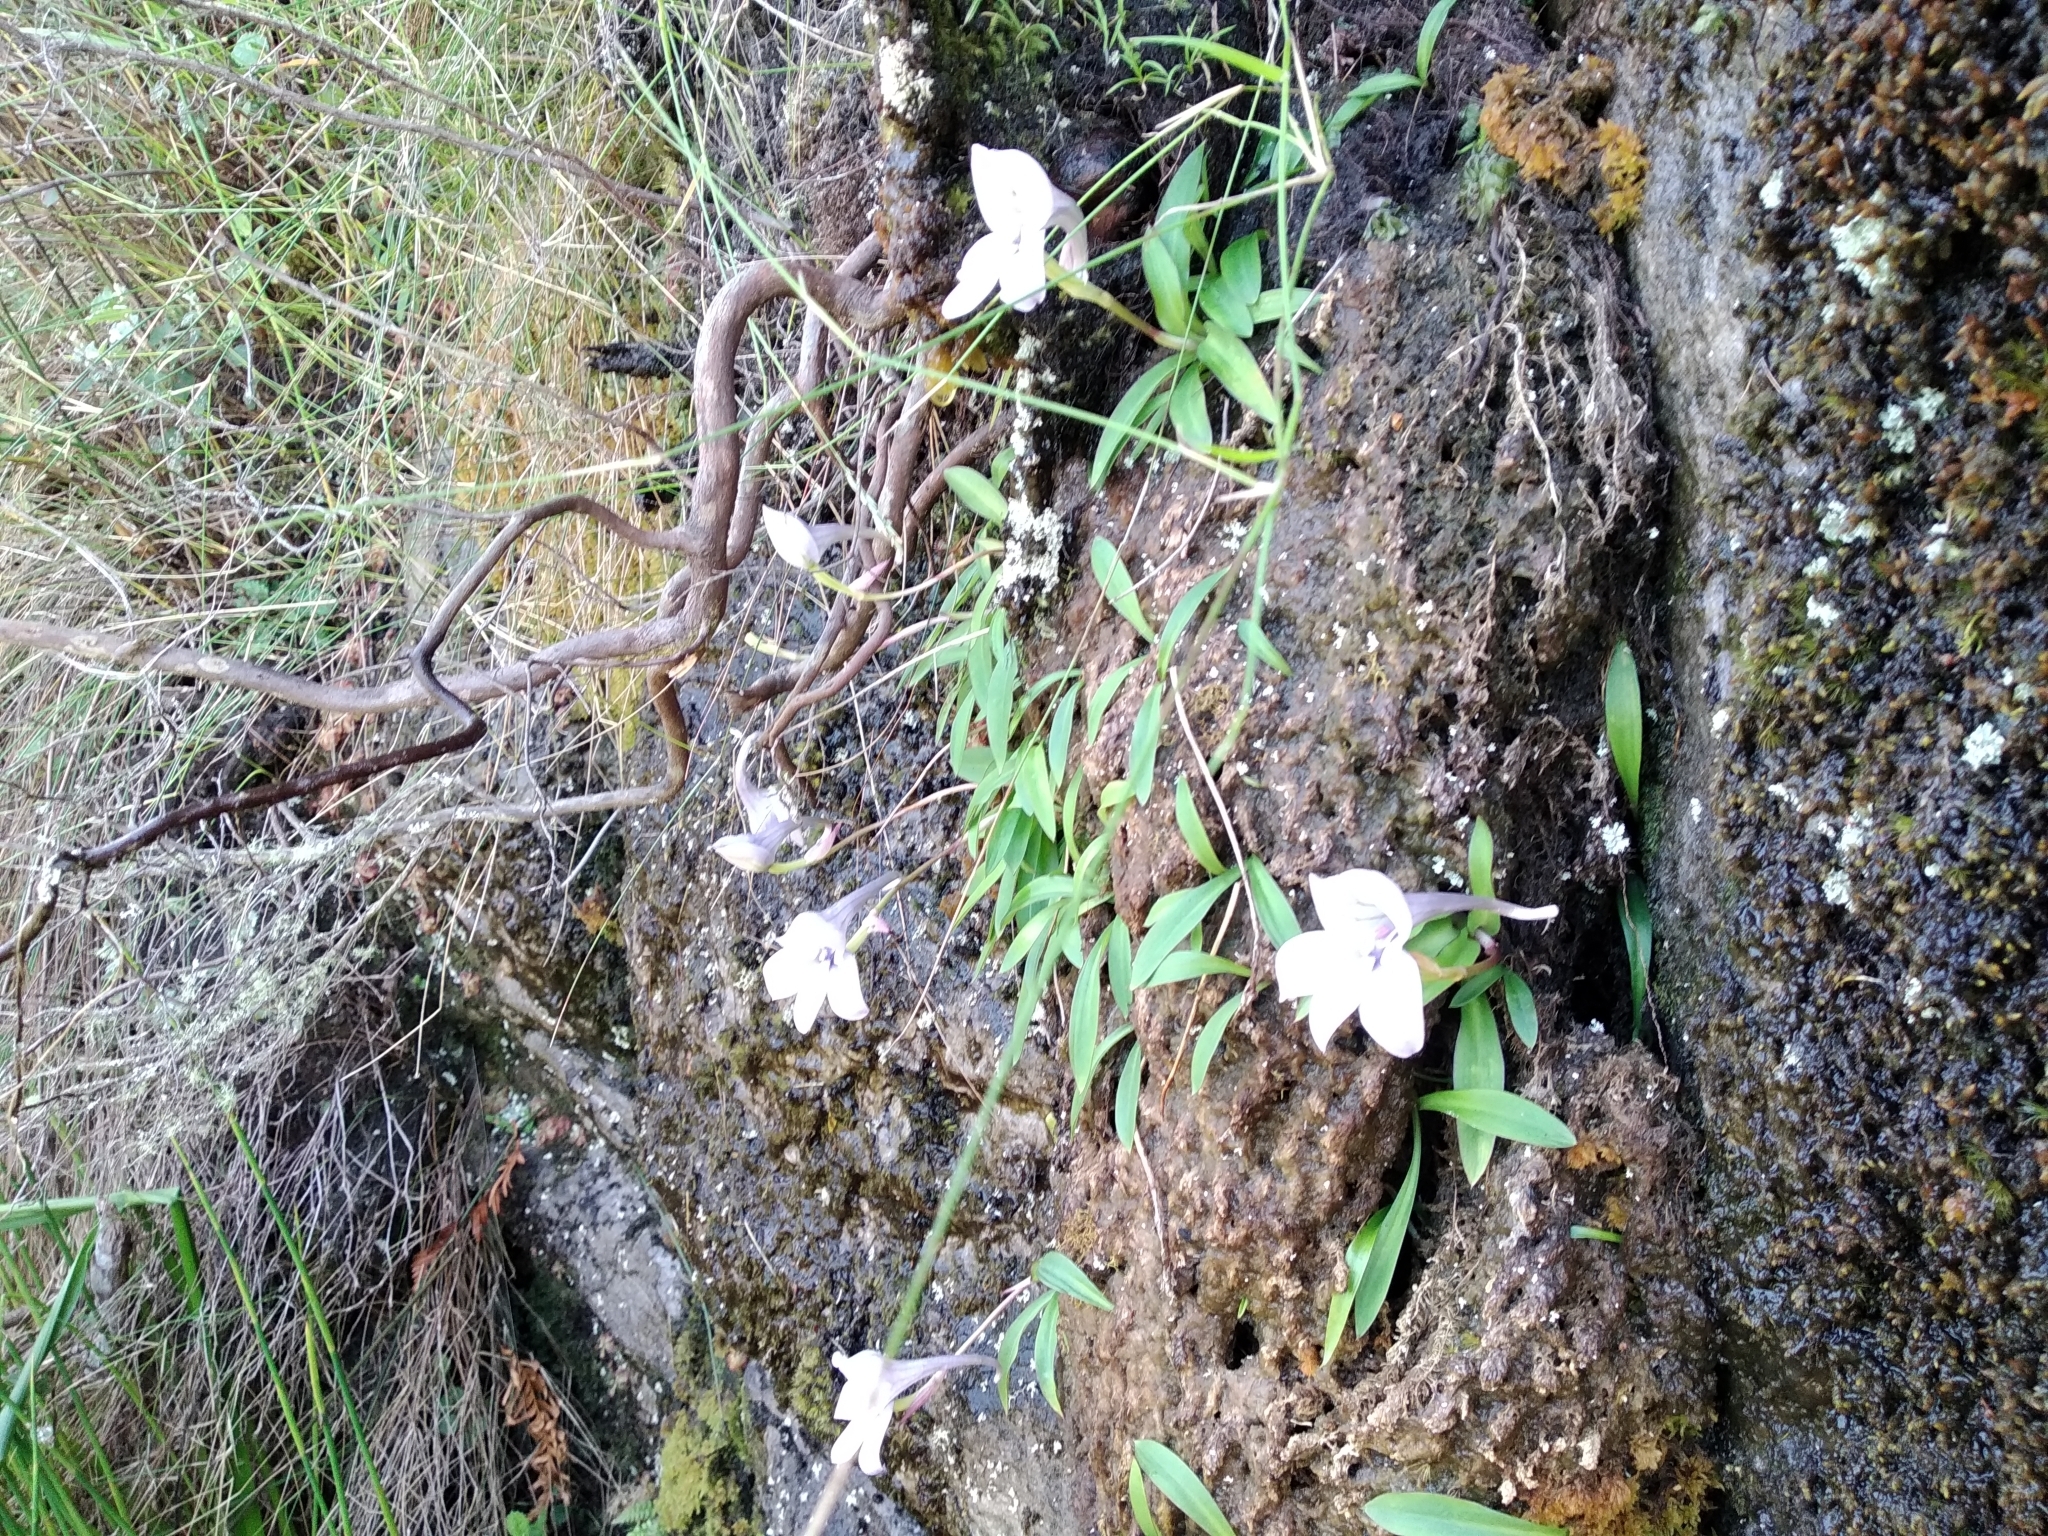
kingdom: Plantae
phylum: Tracheophyta
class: Liliopsida
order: Asparagales
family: Orchidaceae
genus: Disa
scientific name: Disa longicornu
